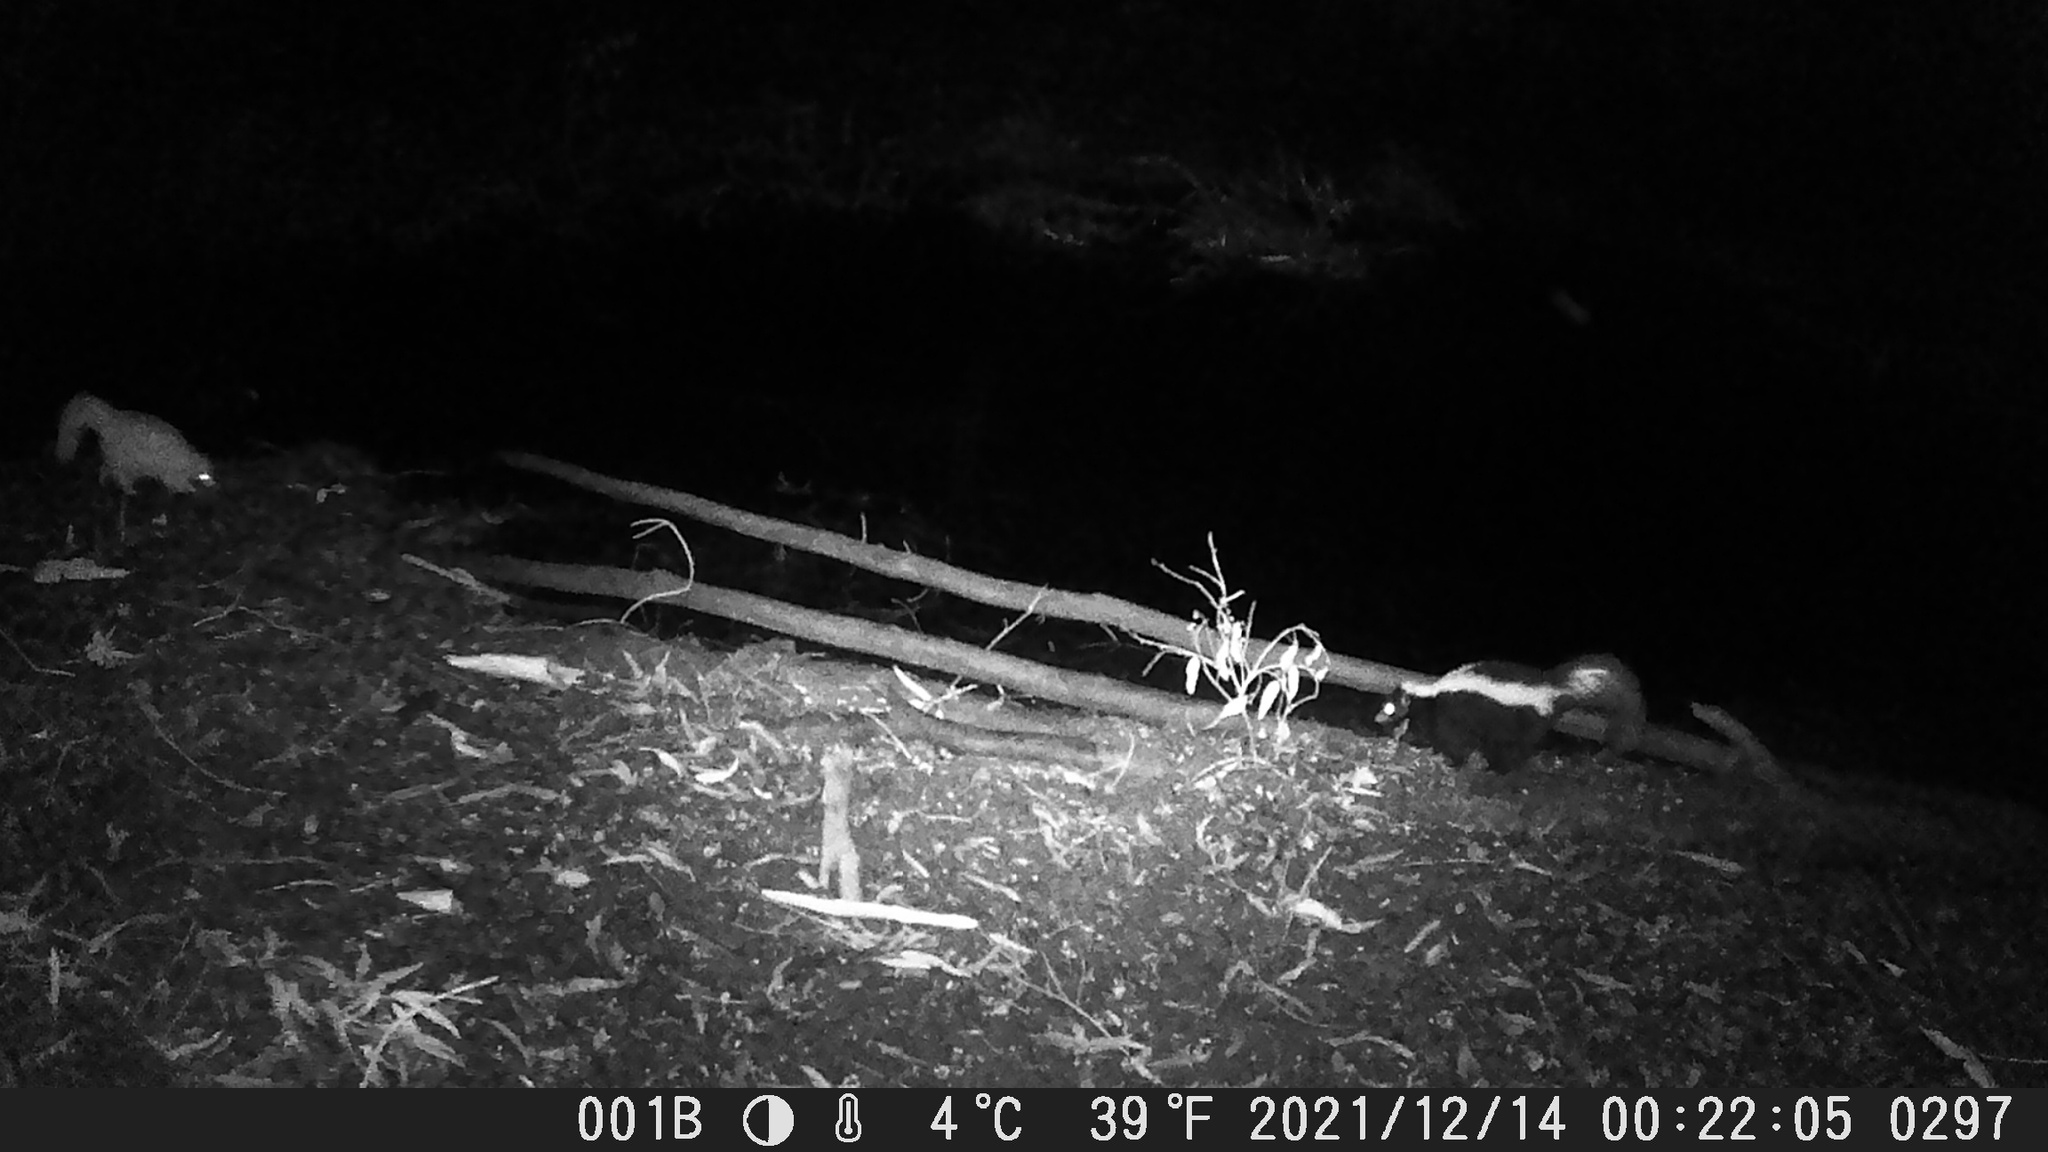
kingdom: Animalia
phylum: Chordata
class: Mammalia
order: Carnivora
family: Mephitidae
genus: Mephitis
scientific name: Mephitis mephitis
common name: Striped skunk
